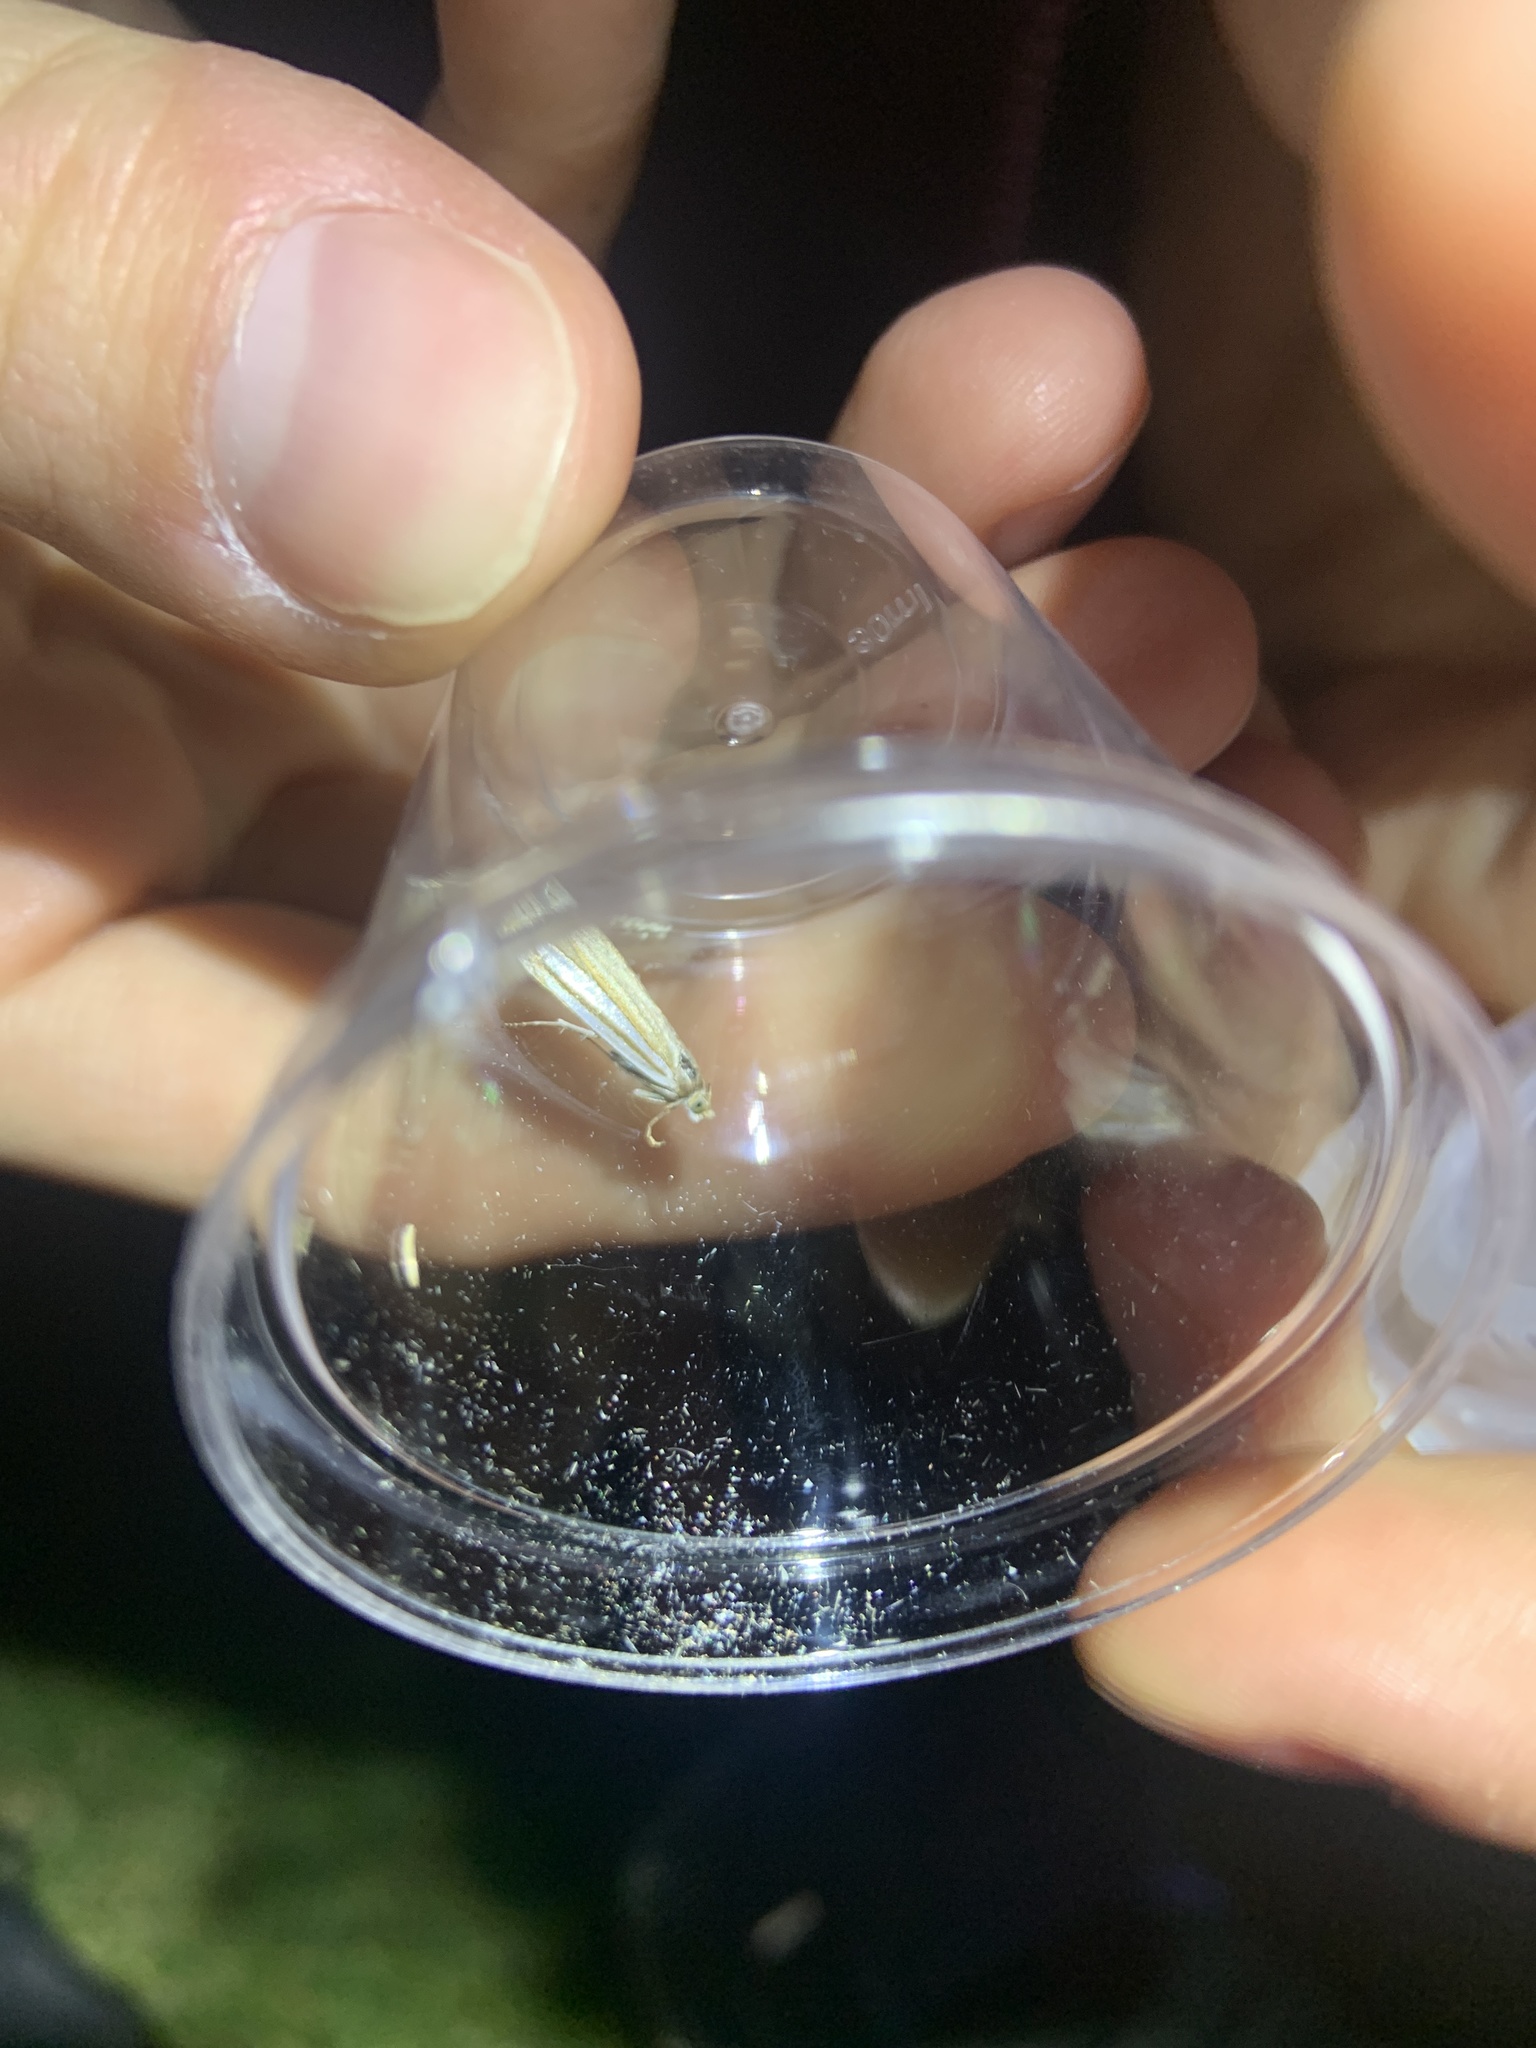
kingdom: Animalia
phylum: Arthropoda
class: Insecta
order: Lepidoptera
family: Crambidae
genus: Crambus
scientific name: Crambus laqueatellus
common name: Eastern grass-veneer
